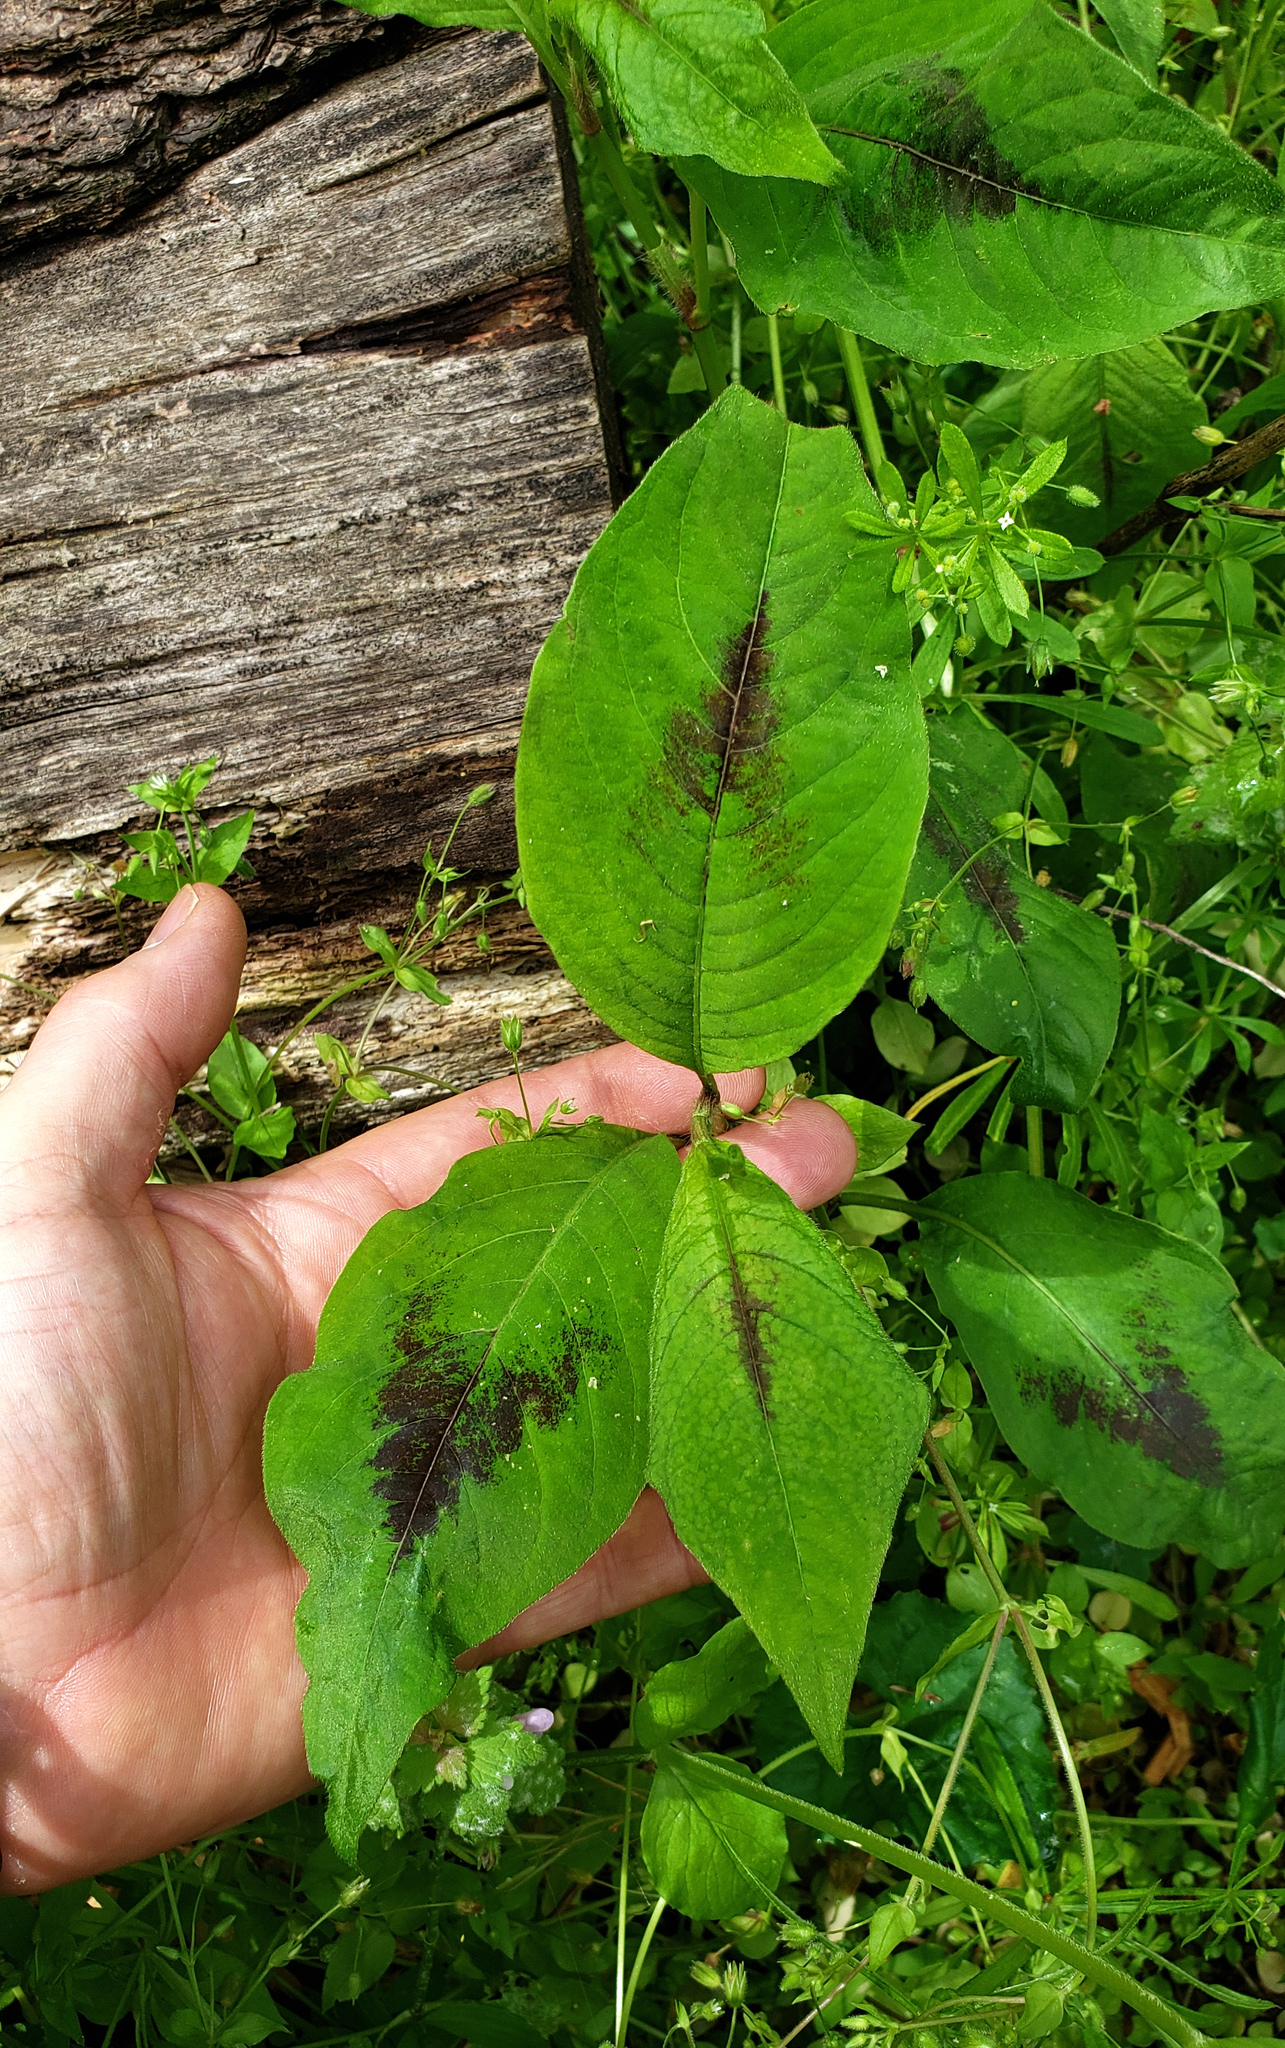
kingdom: Plantae
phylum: Tracheophyta
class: Magnoliopsida
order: Caryophyllales
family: Polygonaceae
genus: Persicaria
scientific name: Persicaria virginiana
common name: Jumpseed
